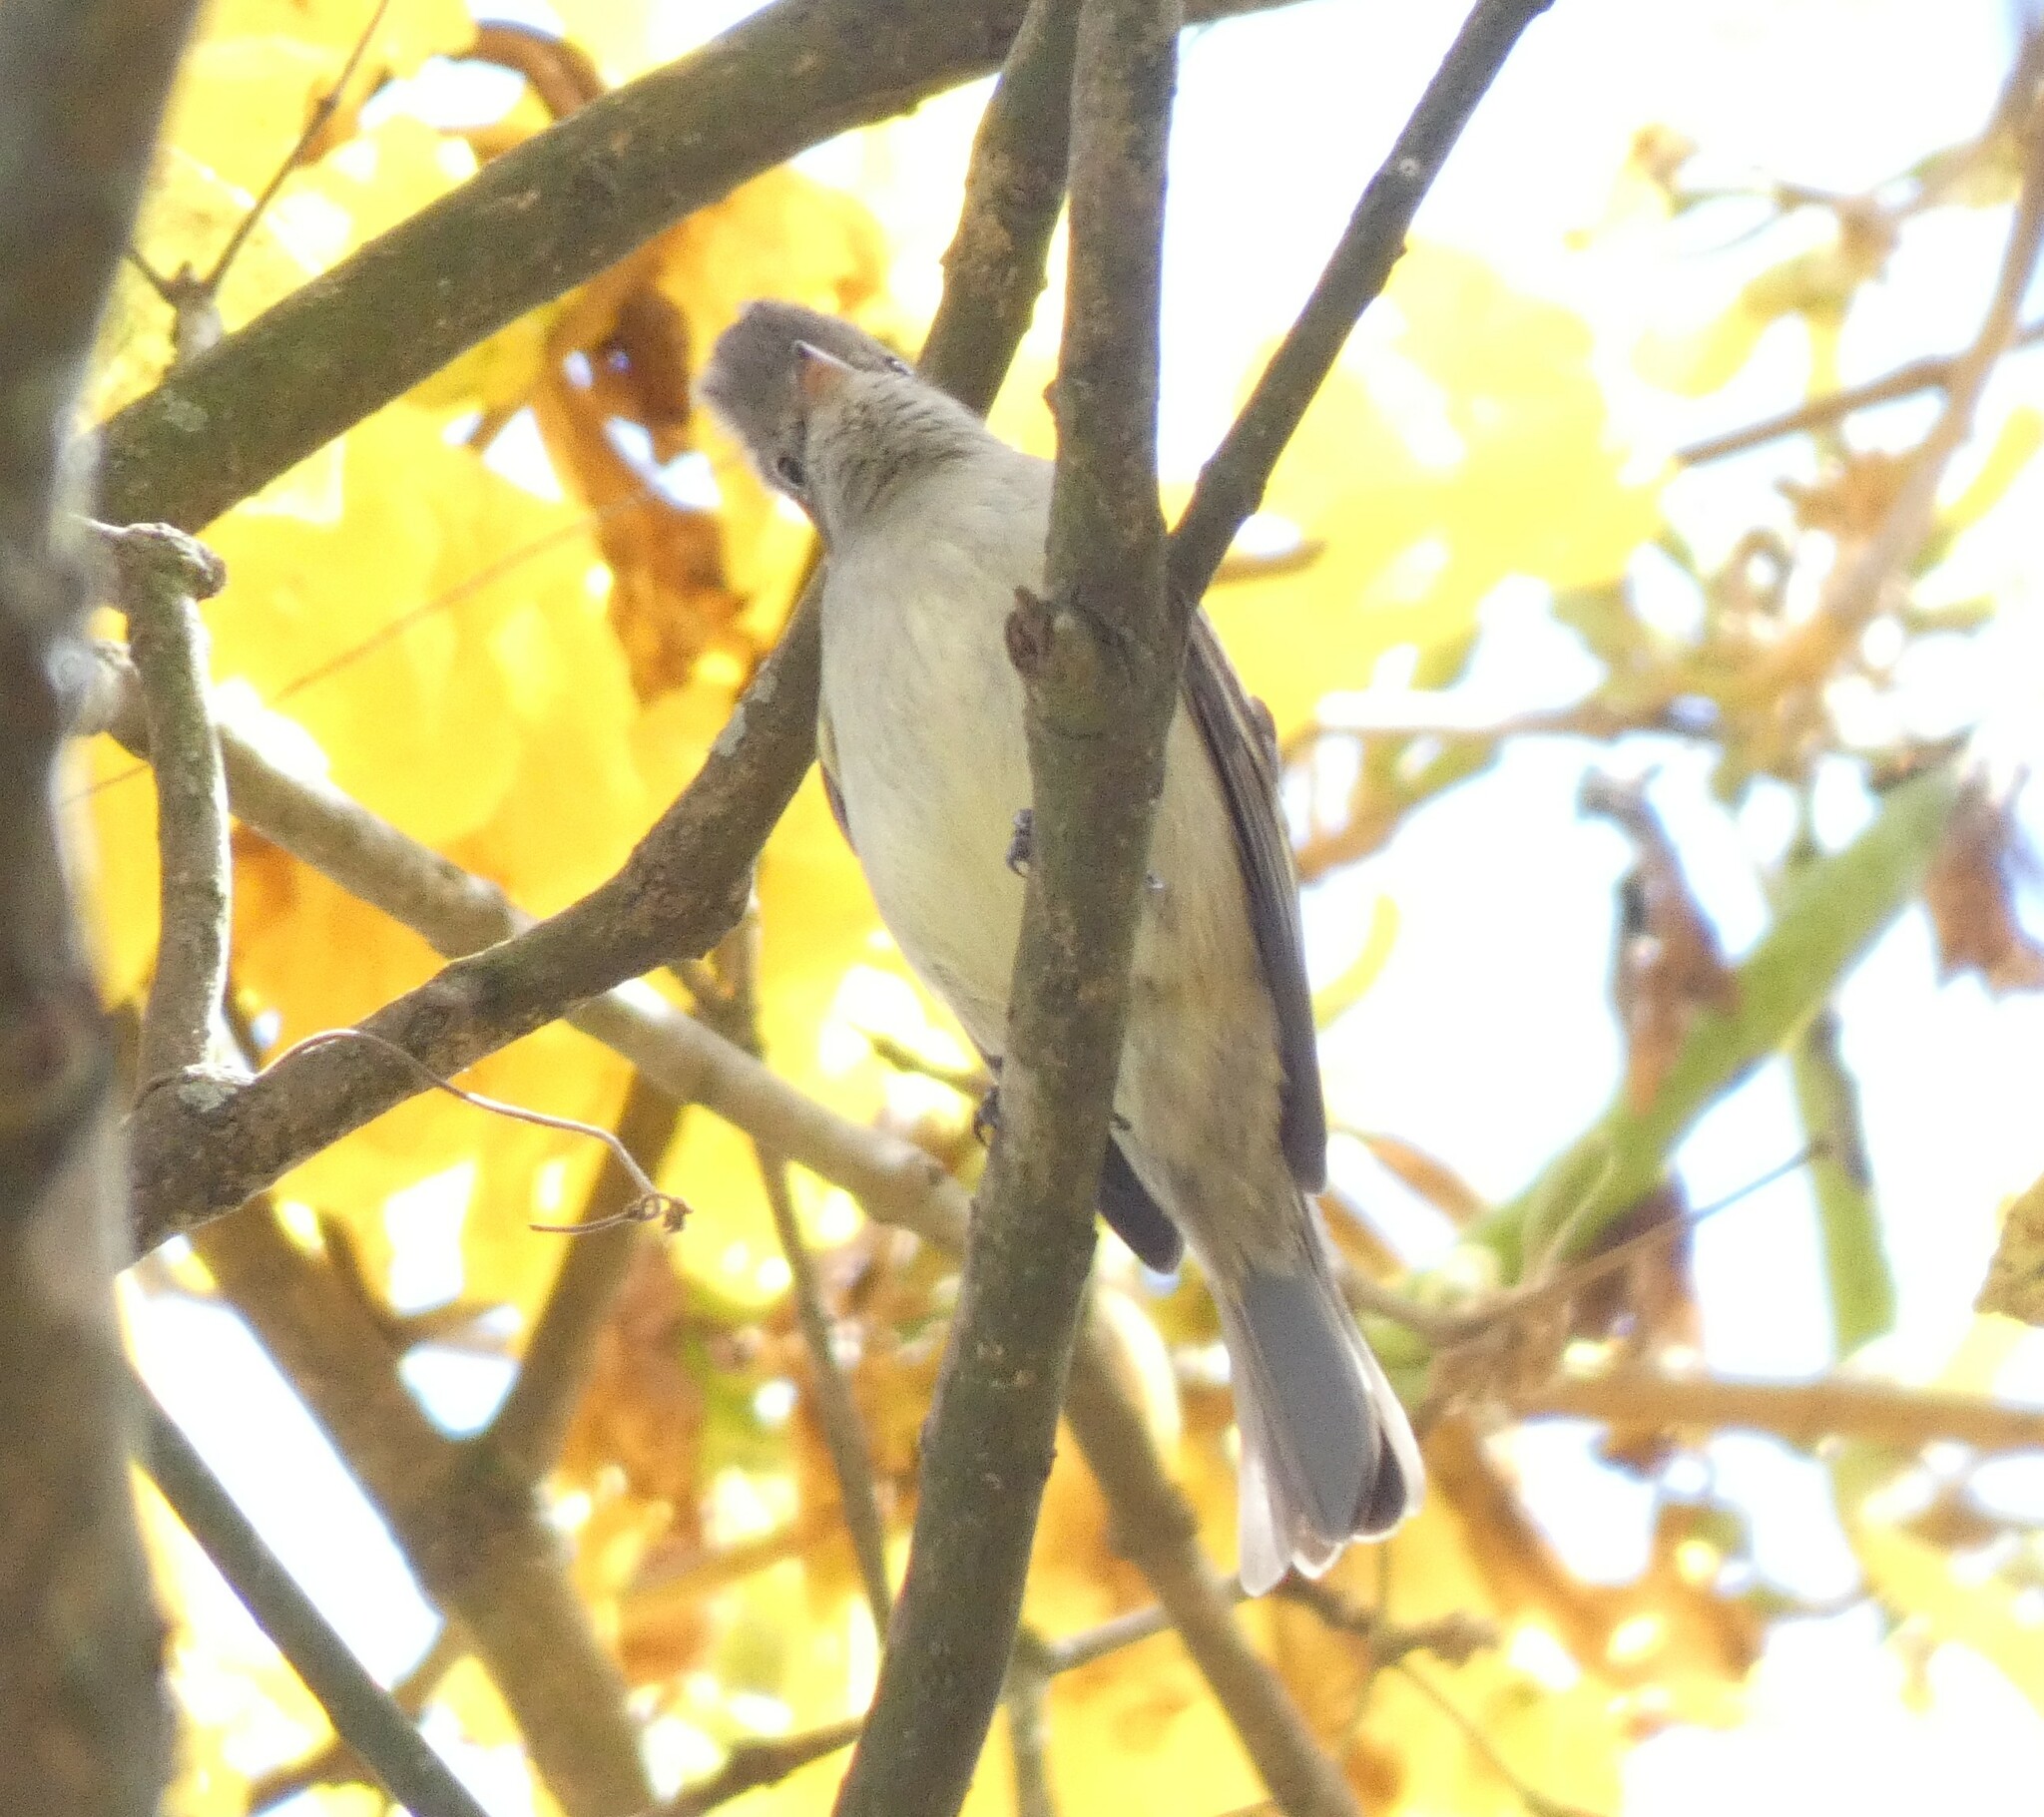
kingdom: Animalia
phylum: Chordata
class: Aves
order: Passeriformes
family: Tyrannidae
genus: Camptostoma
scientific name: Camptostoma obsoletum
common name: Southern beardless-tyrannulet
